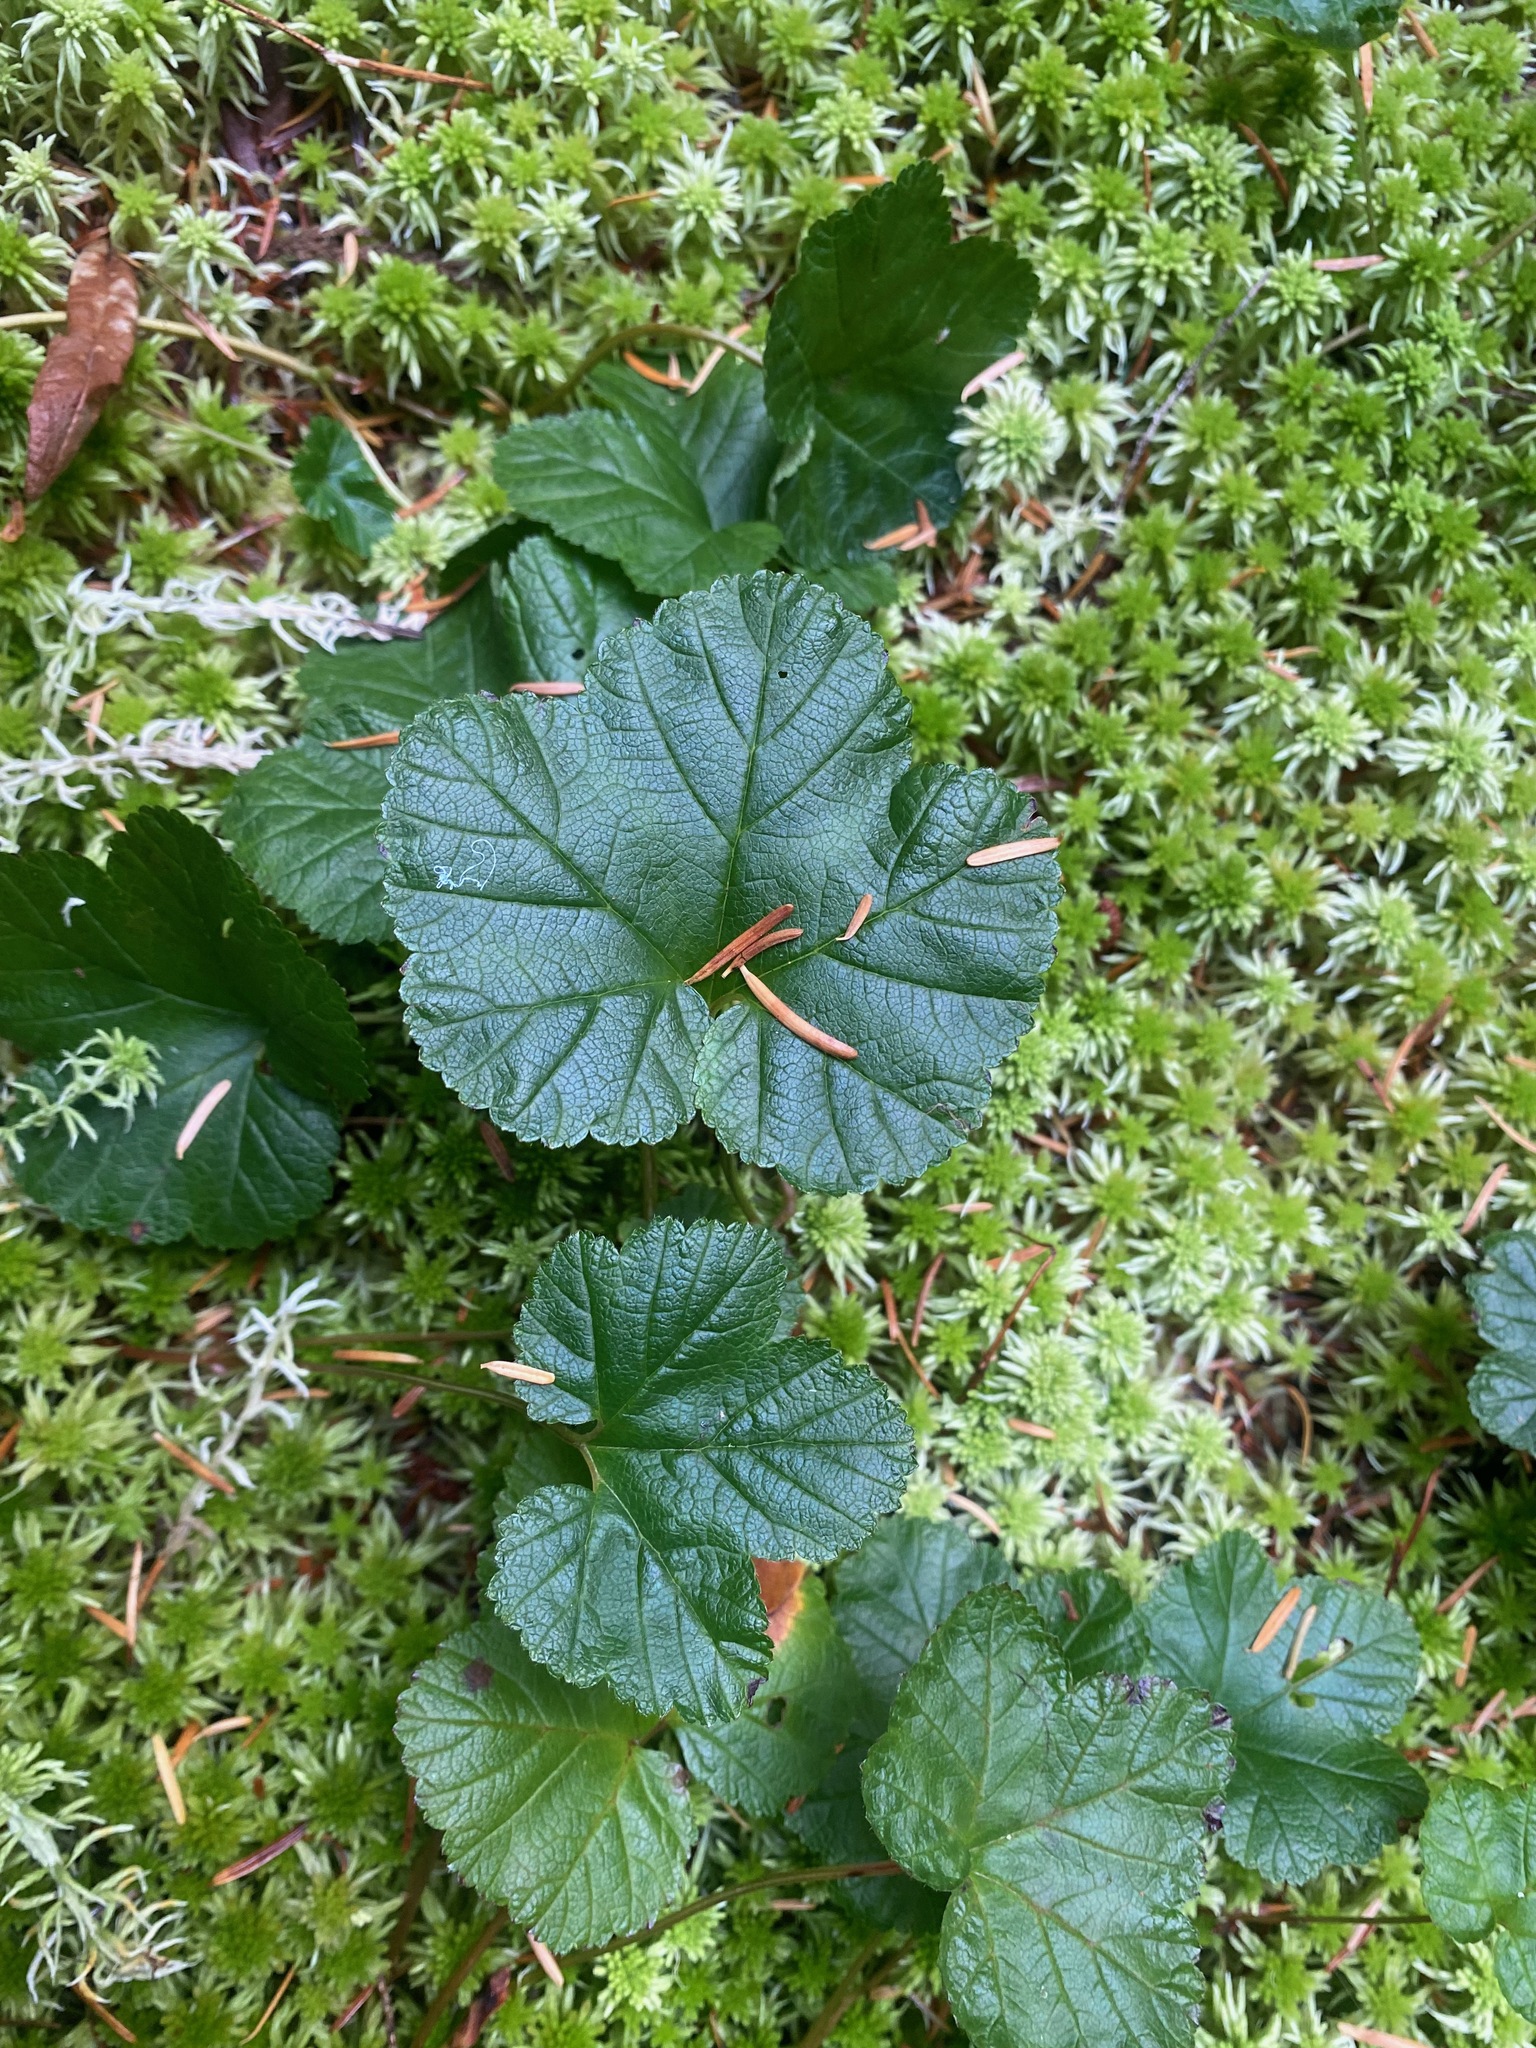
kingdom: Plantae
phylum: Tracheophyta
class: Magnoliopsida
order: Rosales
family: Rosaceae
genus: Rubus
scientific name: Rubus chamaemorus
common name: Cloudberry
